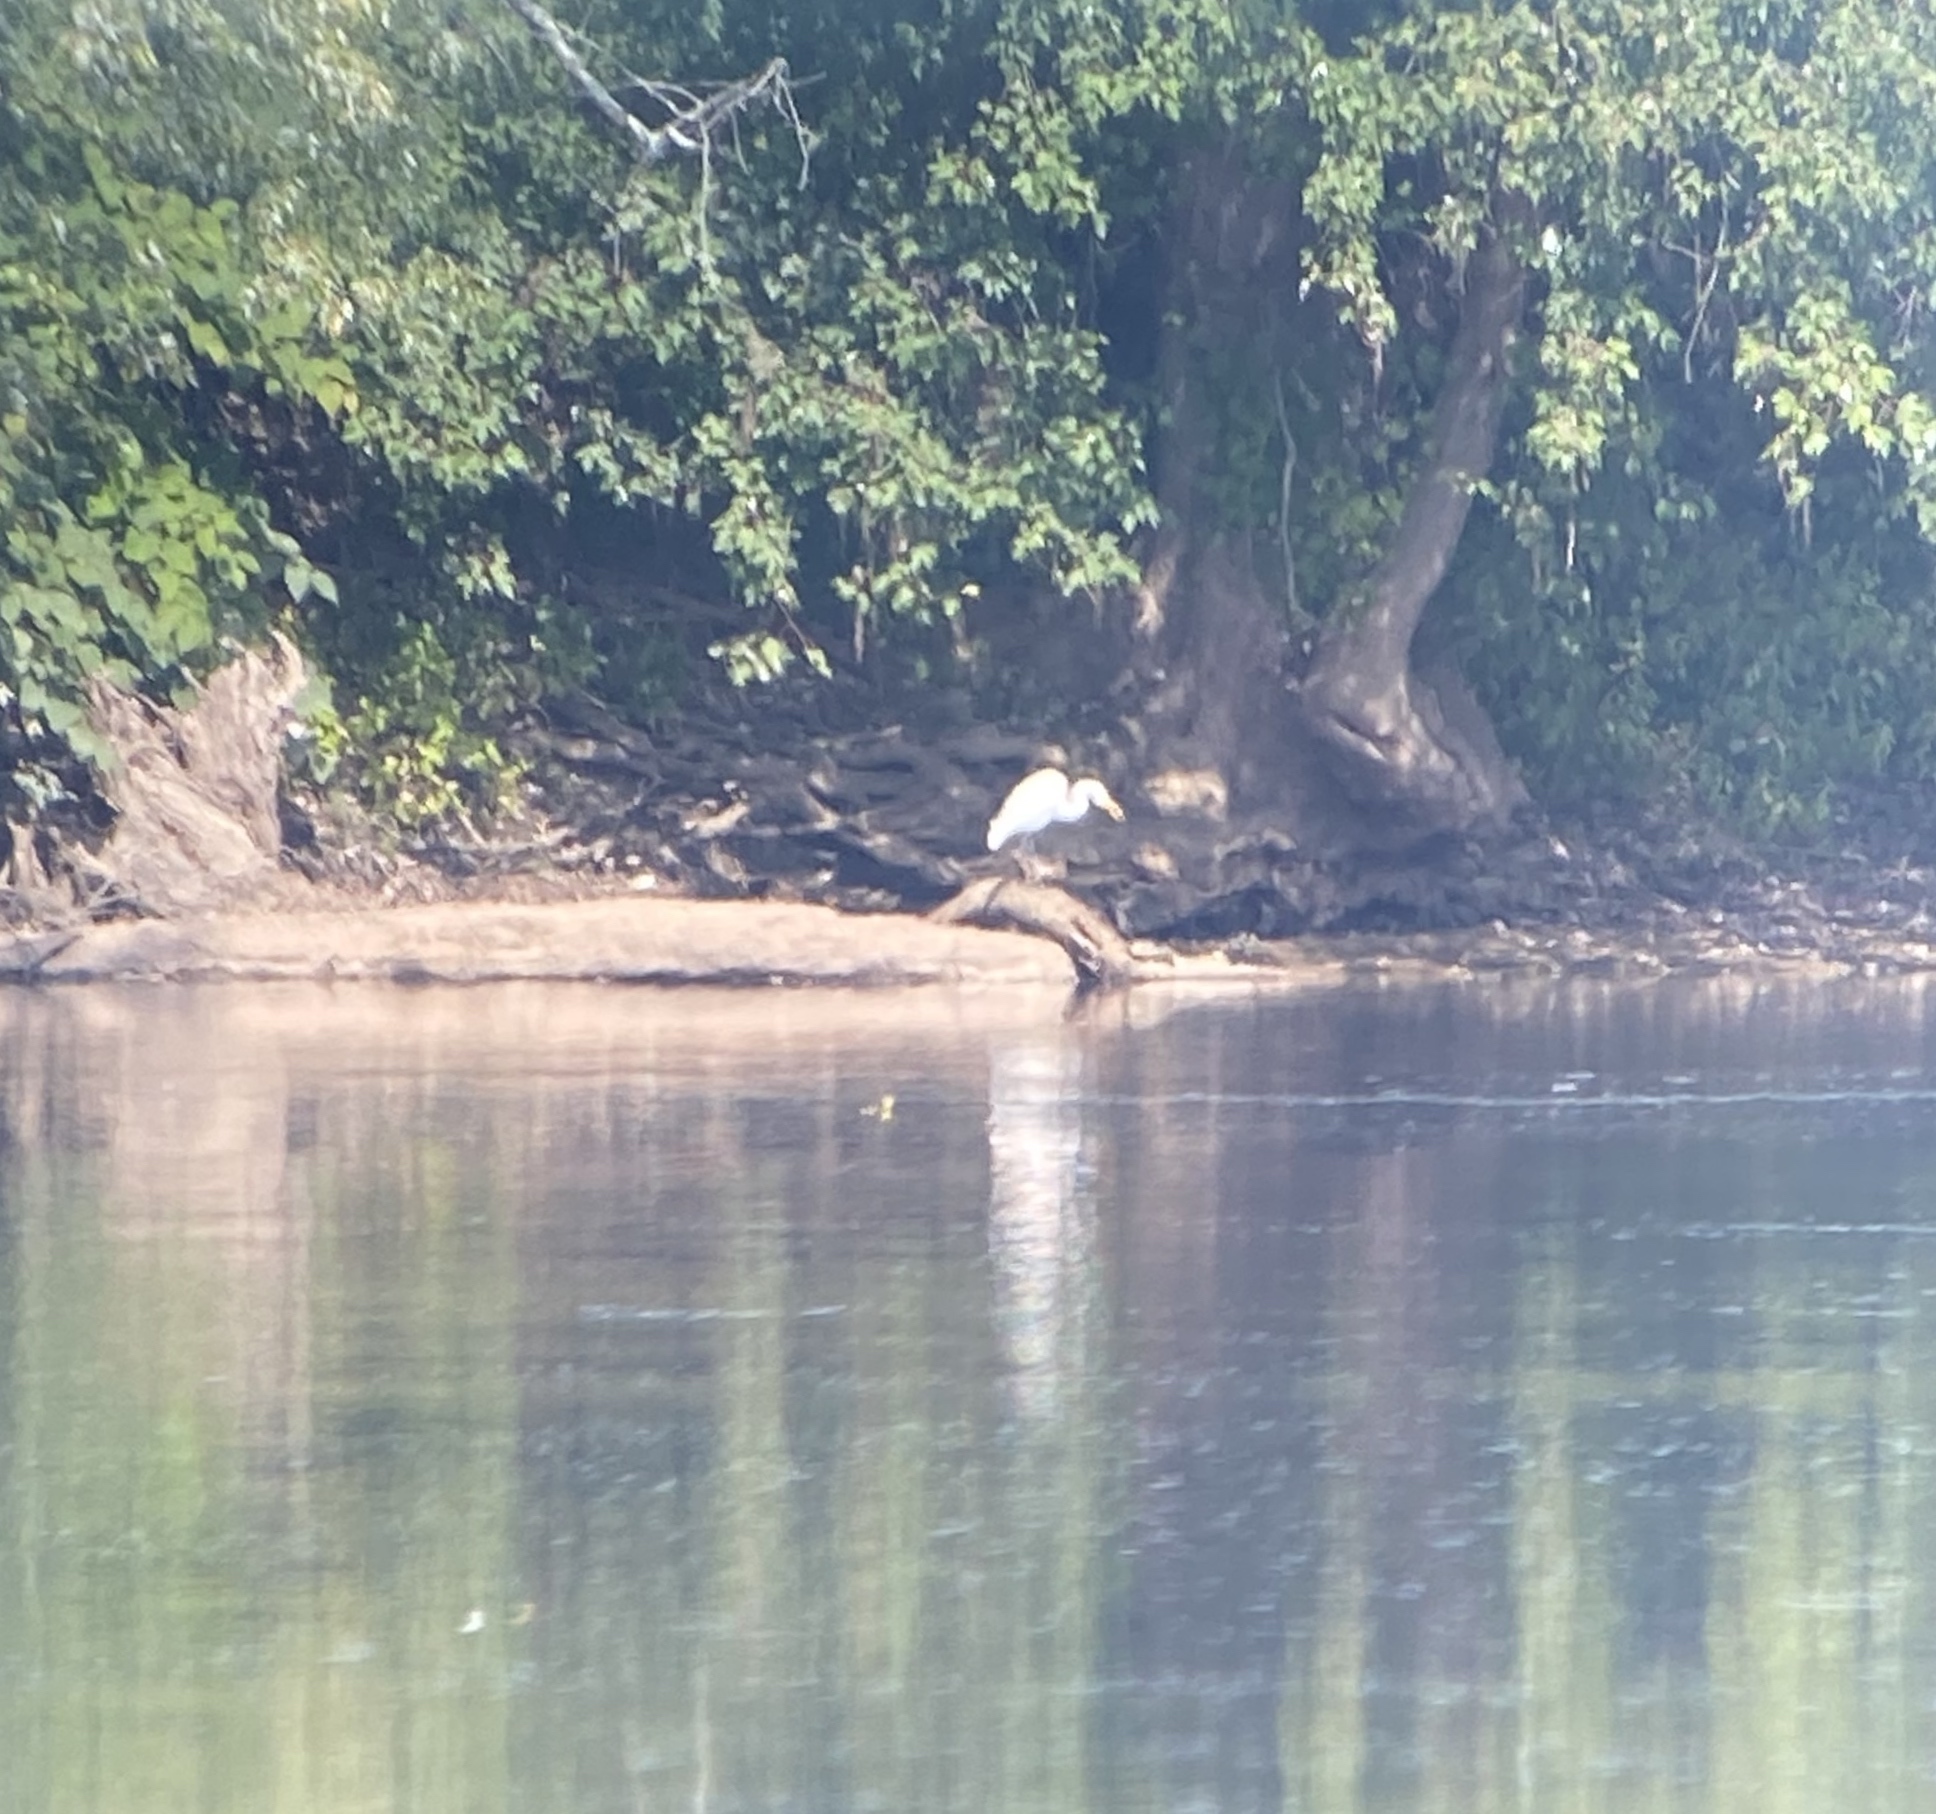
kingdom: Animalia
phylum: Chordata
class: Aves
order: Pelecaniformes
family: Ardeidae
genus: Ardea
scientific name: Ardea alba
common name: Great egret
